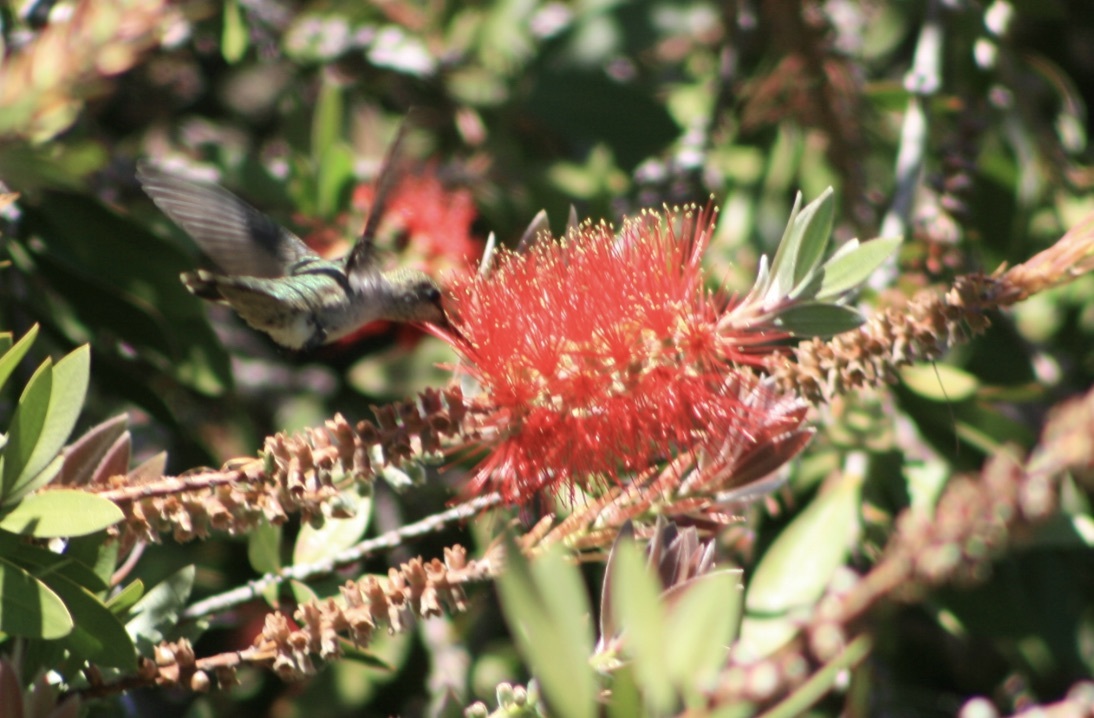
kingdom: Animalia
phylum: Chordata
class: Aves
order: Apodiformes
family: Trochilidae
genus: Calypte
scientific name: Calypte anna
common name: Anna's hummingbird
